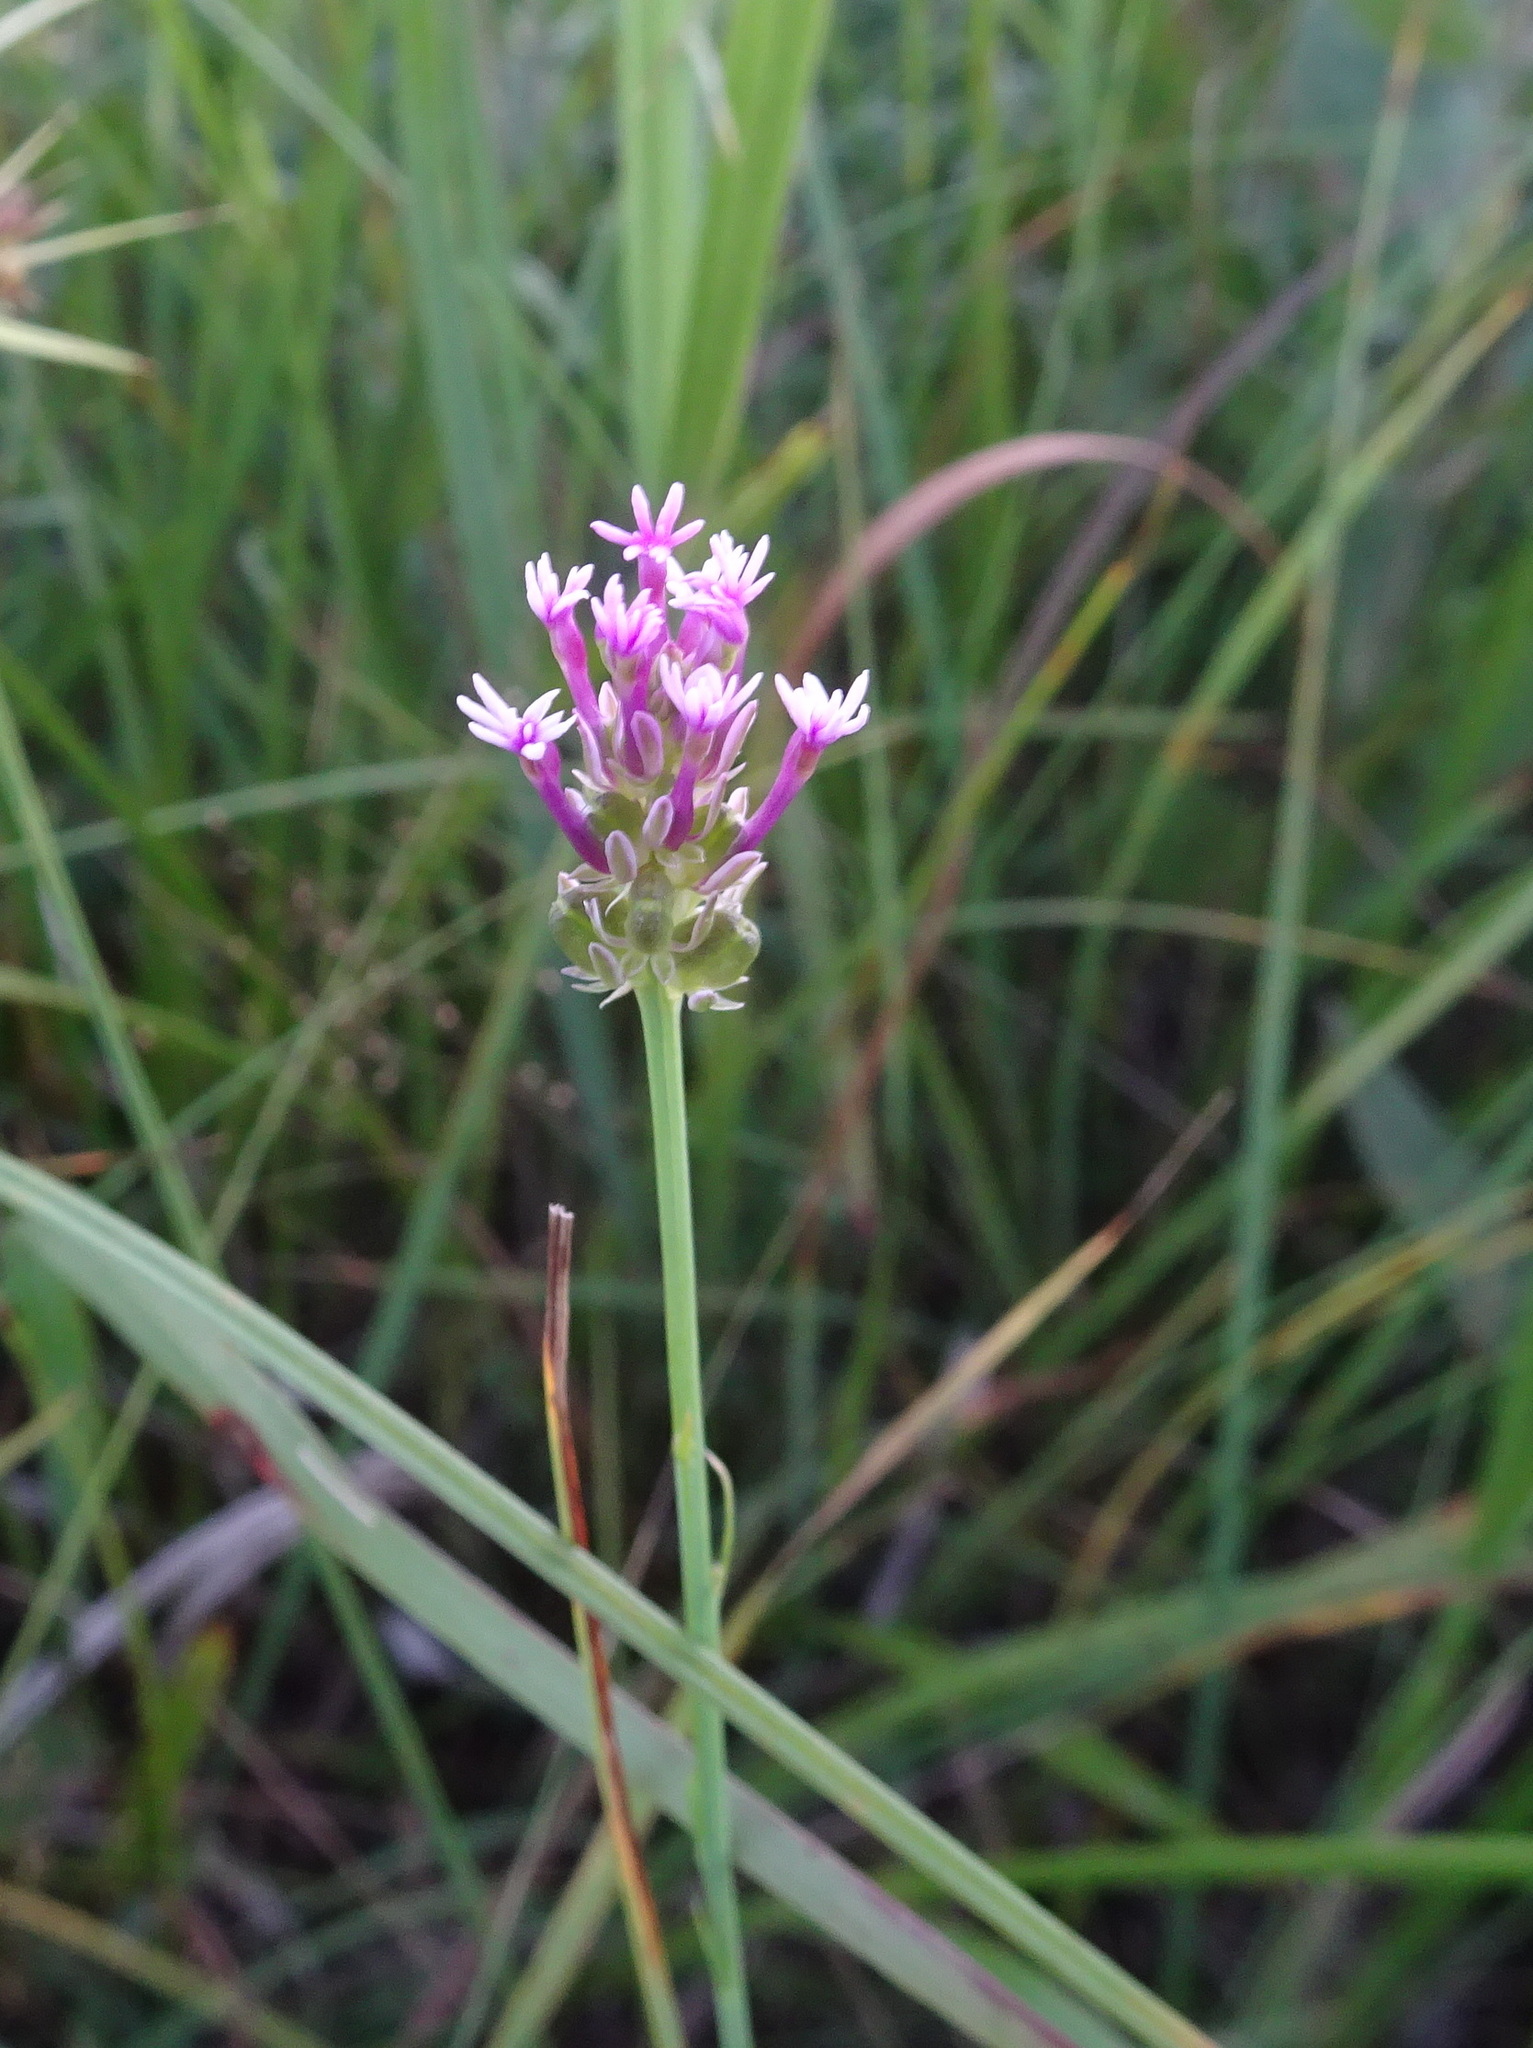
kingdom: Plantae
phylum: Tracheophyta
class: Magnoliopsida
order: Fabales
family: Polygalaceae
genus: Polygala
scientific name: Polygala incarnata
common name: Pink milkwort
